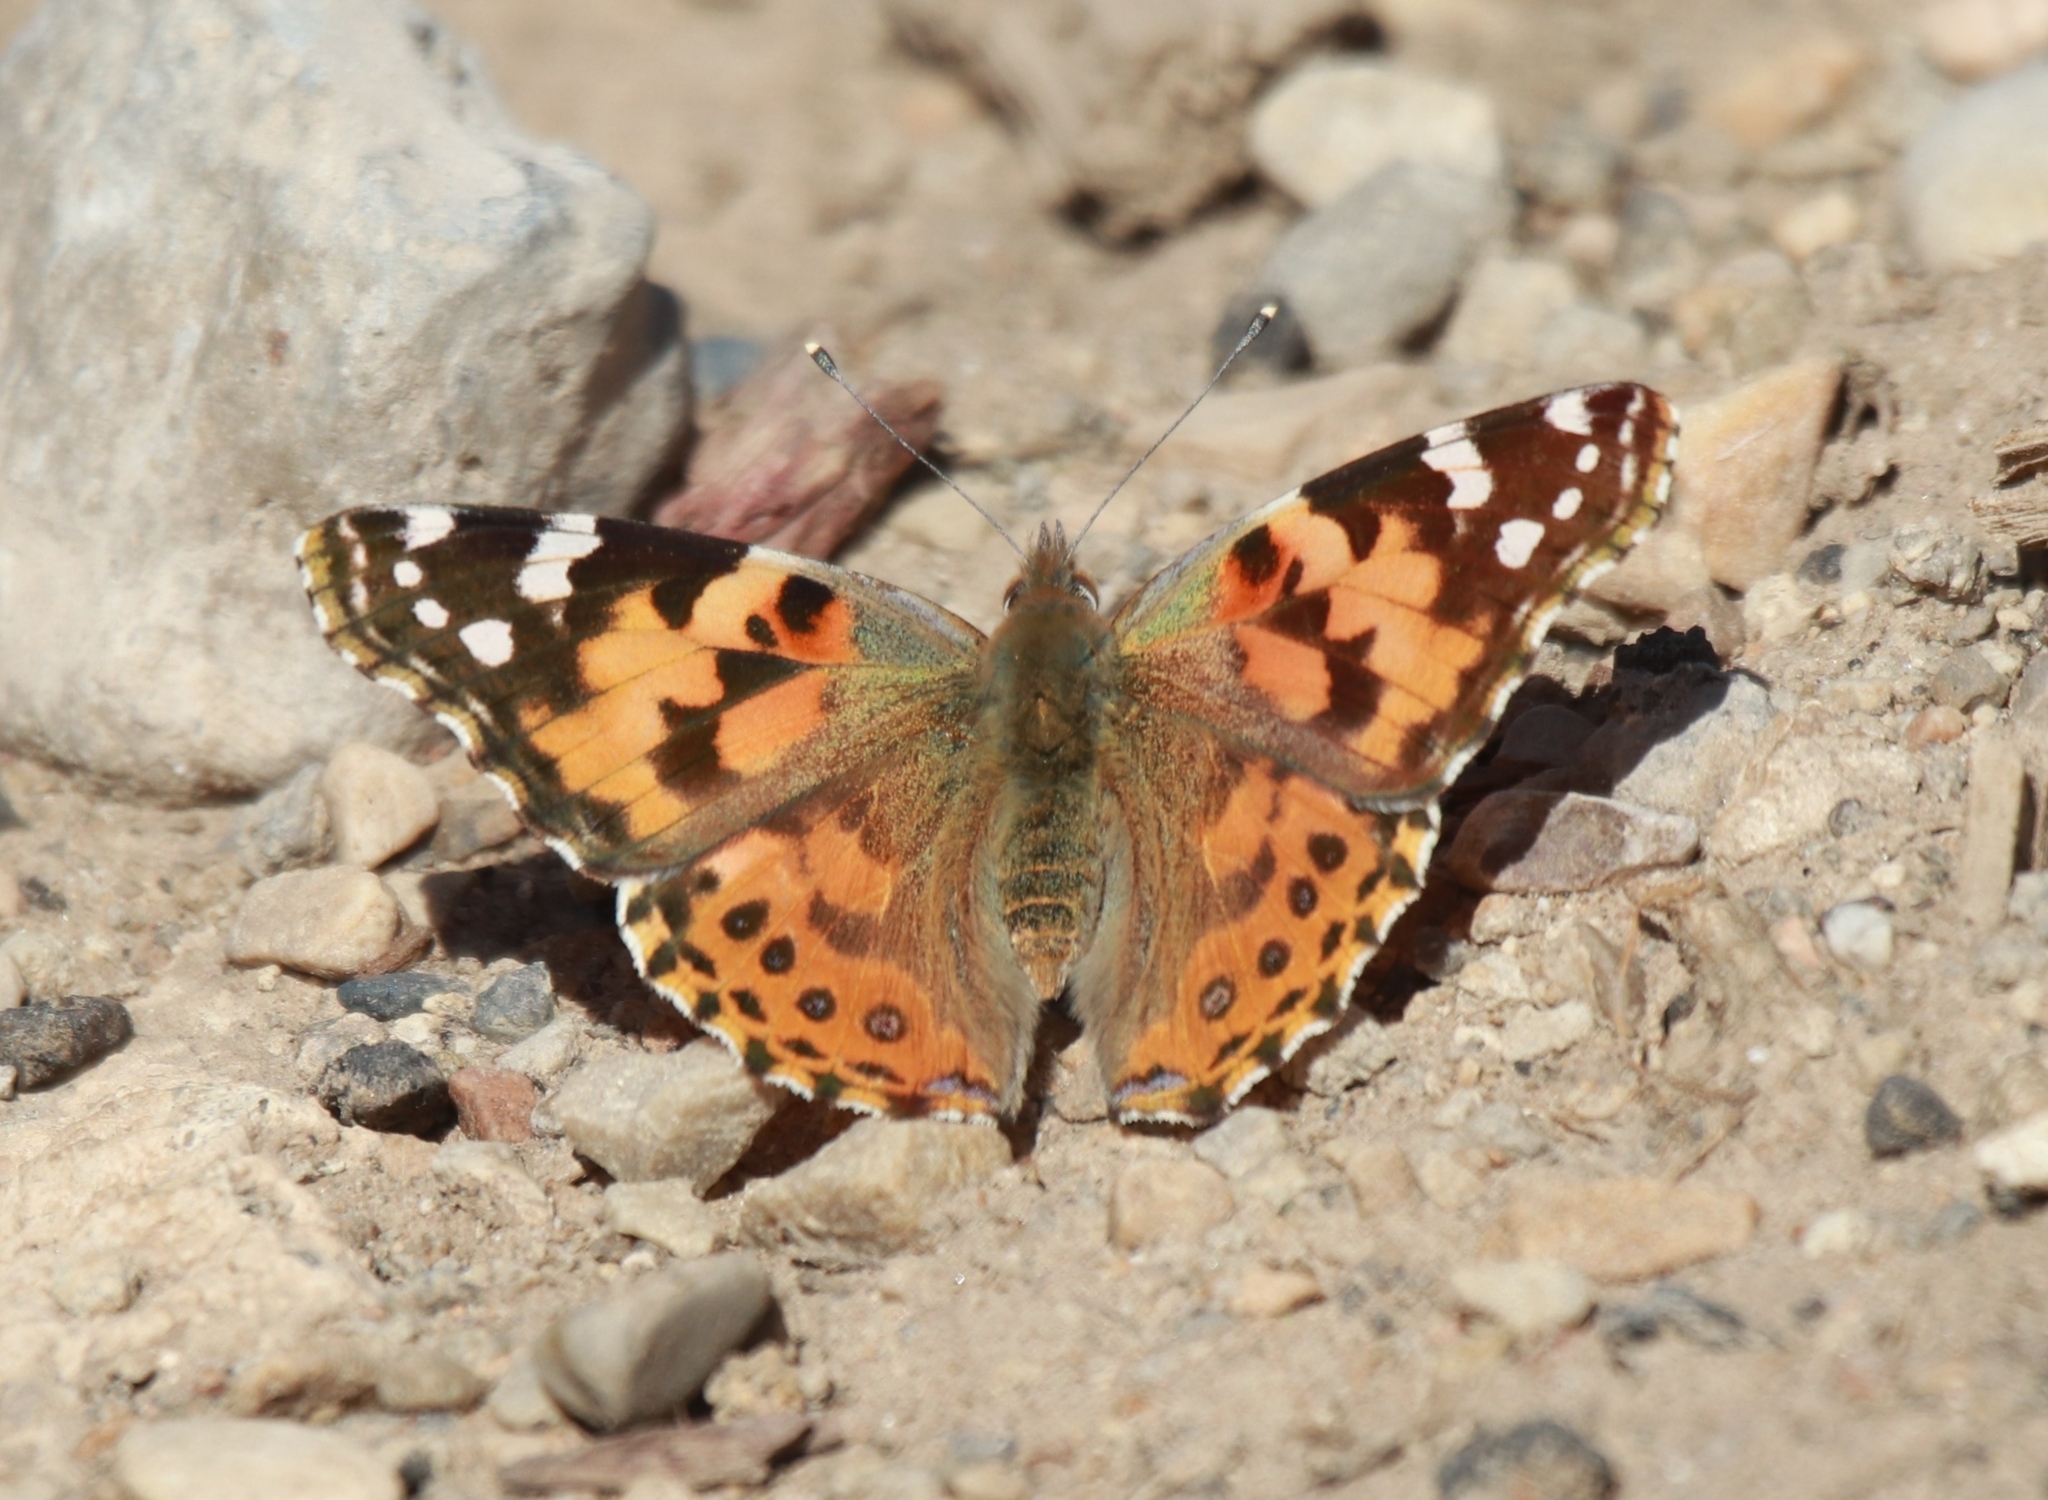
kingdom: Animalia
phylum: Arthropoda
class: Insecta
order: Lepidoptera
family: Nymphalidae
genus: Vanessa
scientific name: Vanessa cardui
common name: Painted lady
